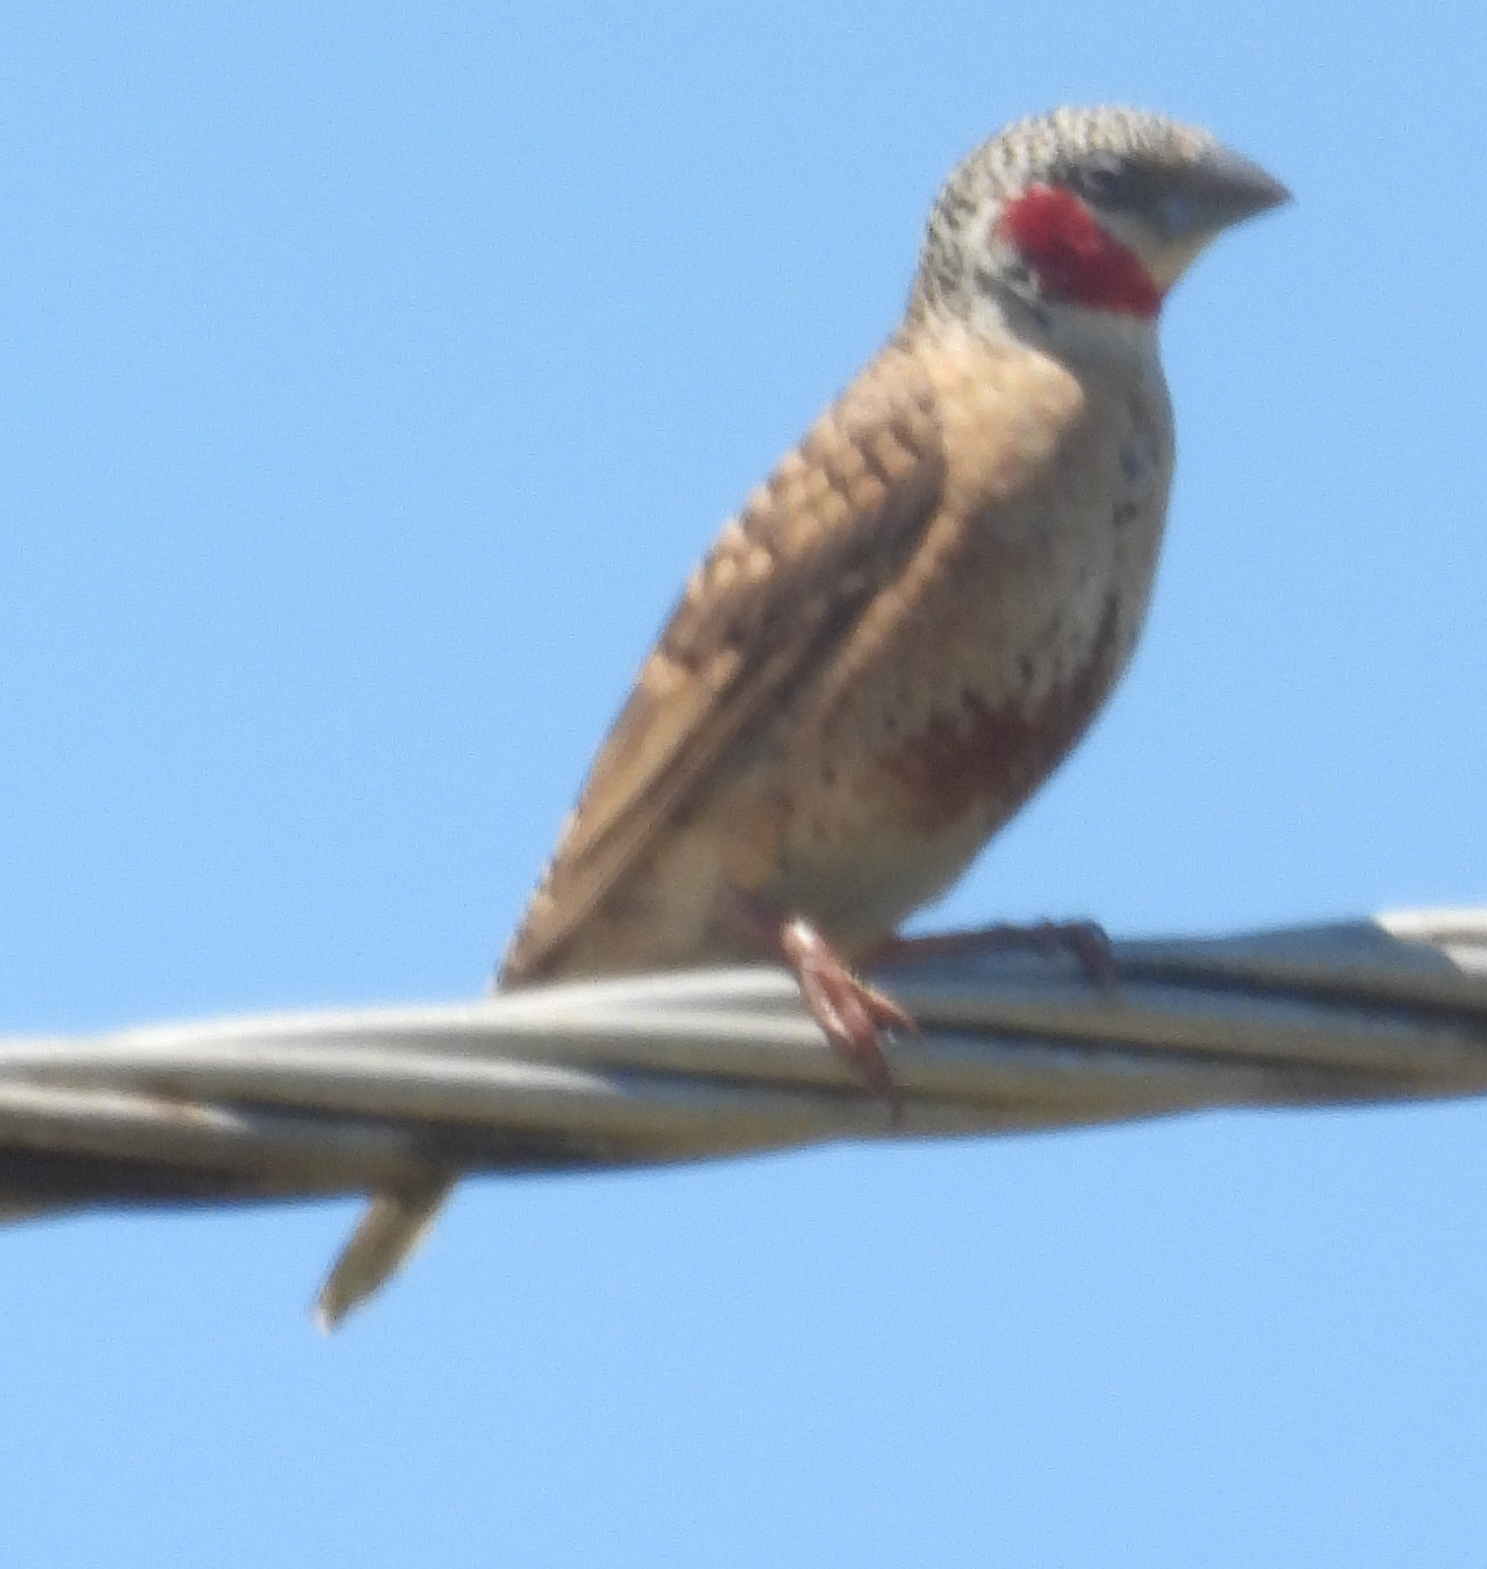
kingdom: Animalia
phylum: Chordata
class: Aves
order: Passeriformes
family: Estrildidae
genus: Amadina
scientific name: Amadina fasciata
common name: Cut-throat finch
